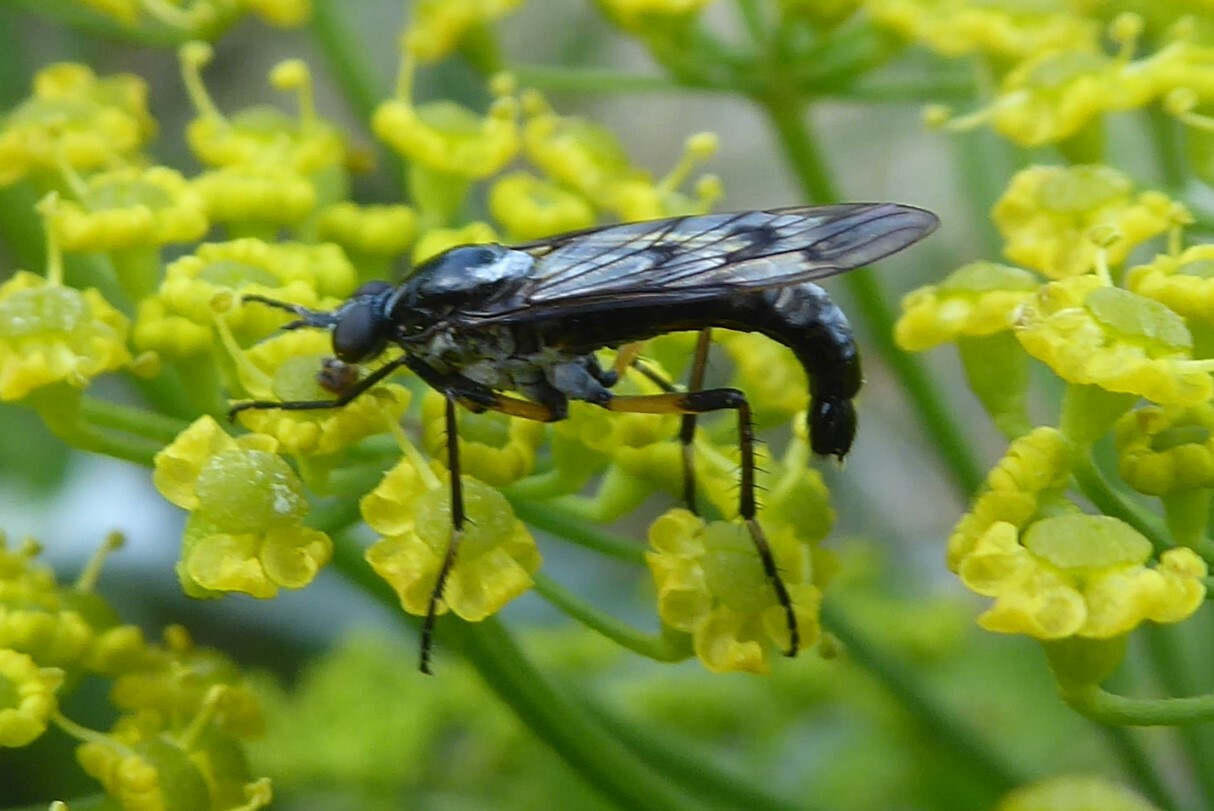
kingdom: Animalia
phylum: Arthropoda
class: Insecta
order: Diptera
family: Therevidae
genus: Anabarhynchus
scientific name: Anabarhynchus micans
